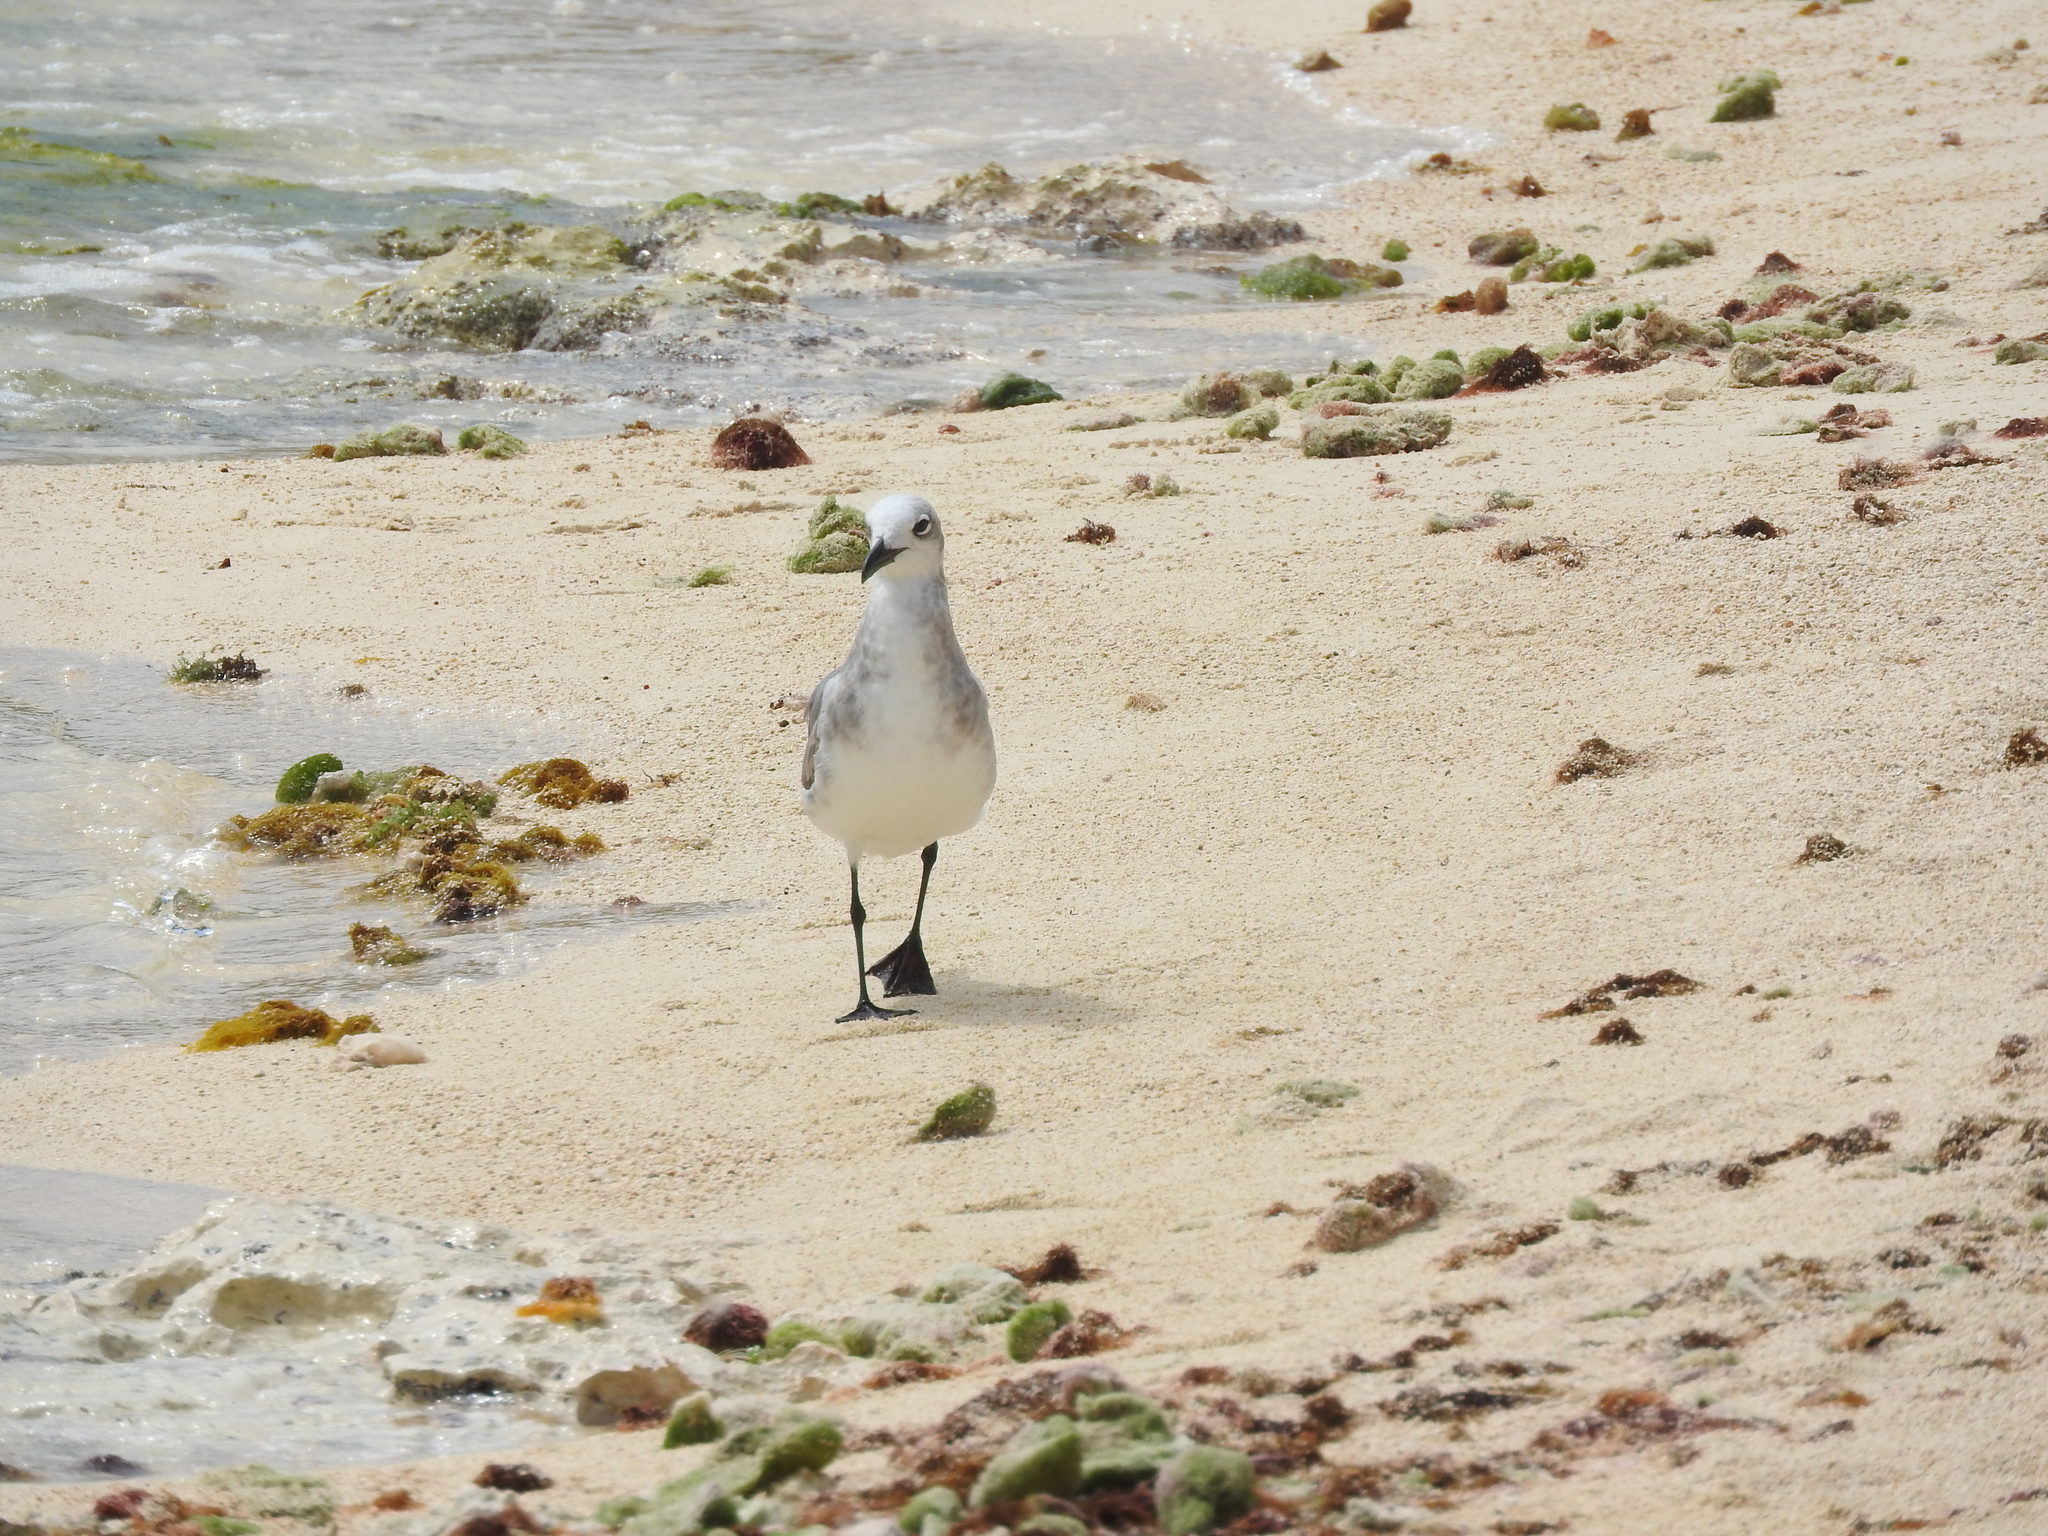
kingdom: Animalia
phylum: Chordata
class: Aves
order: Charadriiformes
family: Laridae
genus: Leucophaeus
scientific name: Leucophaeus atricilla
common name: Laughing gull
